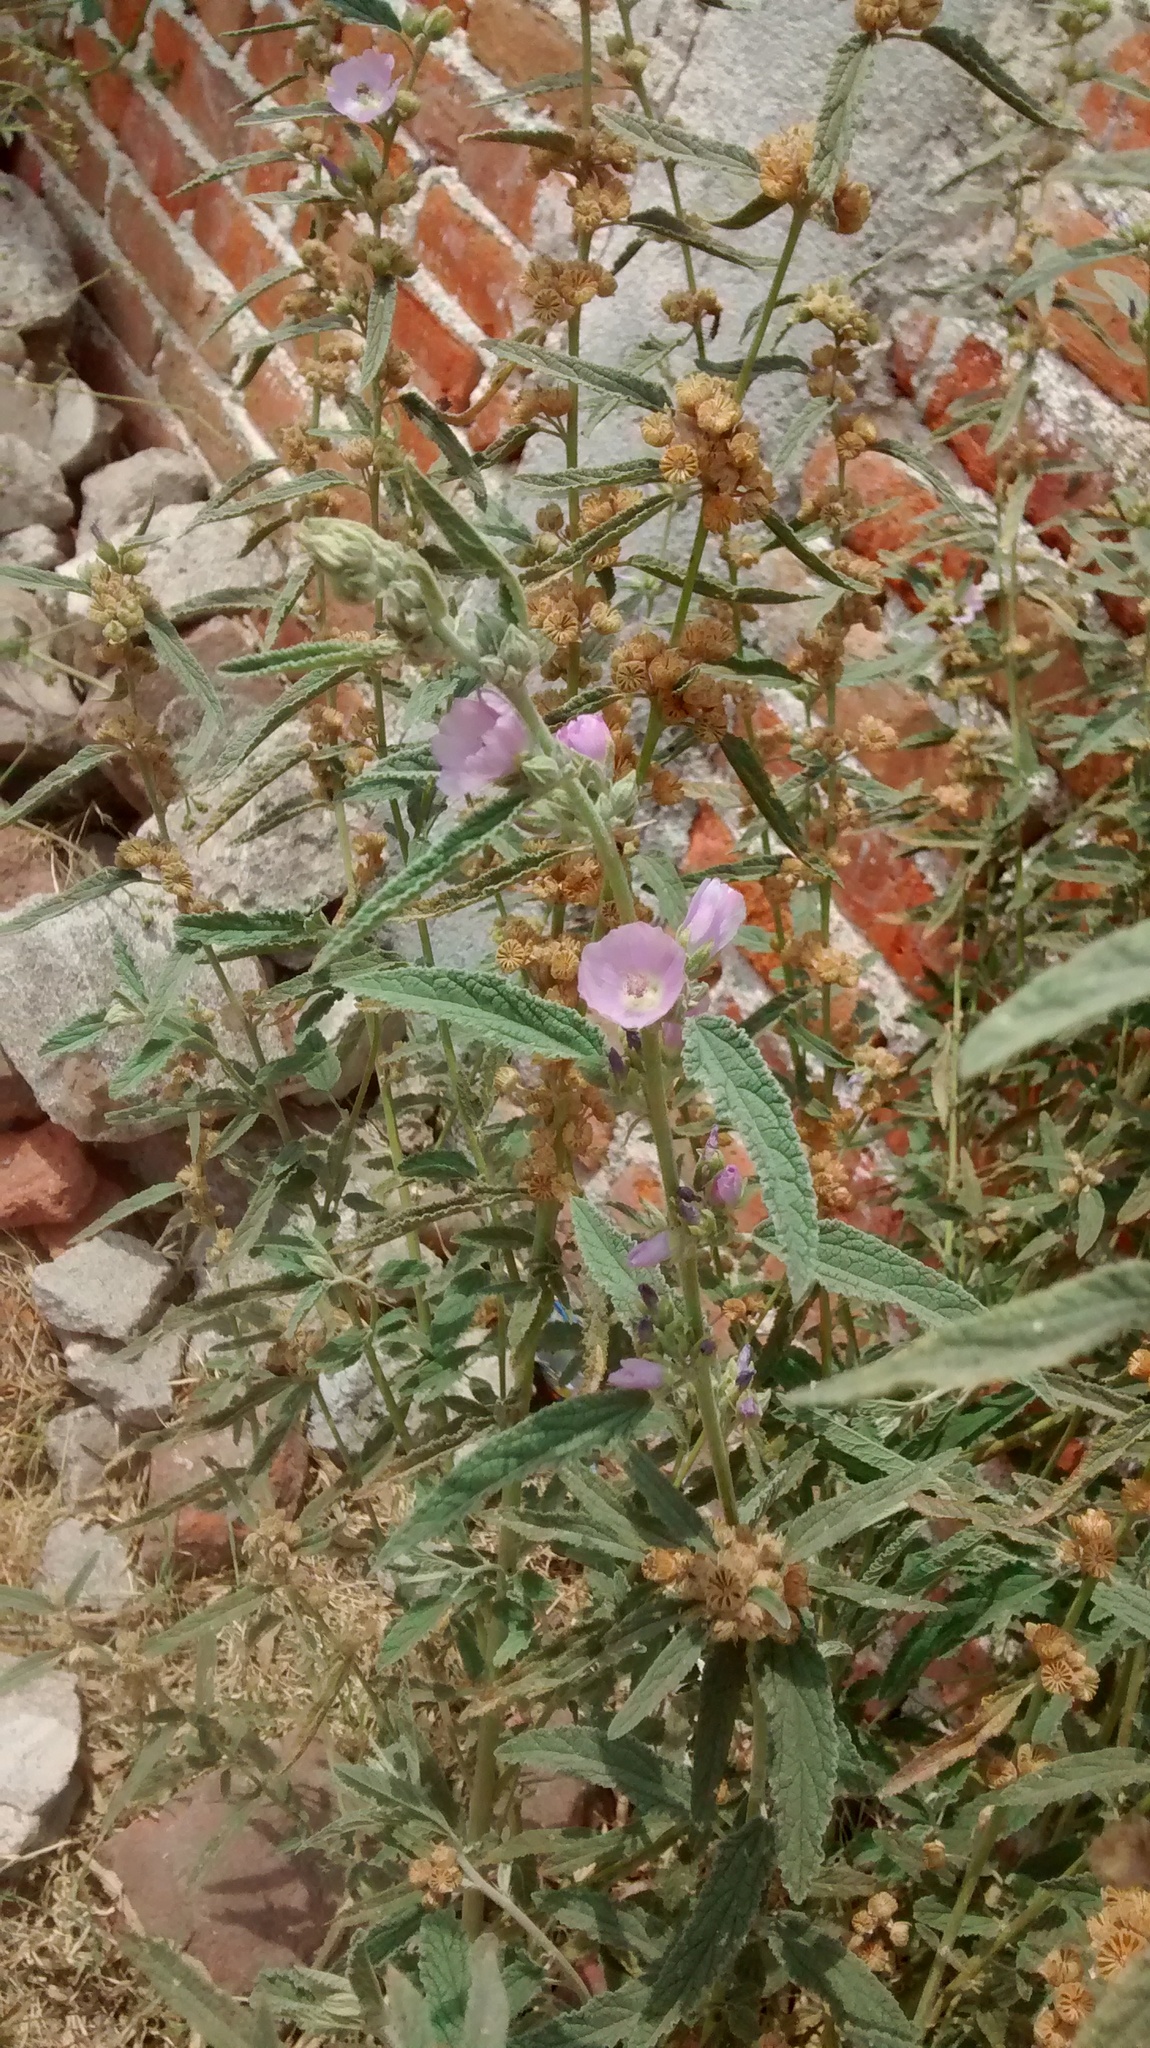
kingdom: Plantae
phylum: Tracheophyta
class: Magnoliopsida
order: Malvales
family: Malvaceae
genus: Sphaeralcea
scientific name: Sphaeralcea angustifolia
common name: Copper globe-mallow
